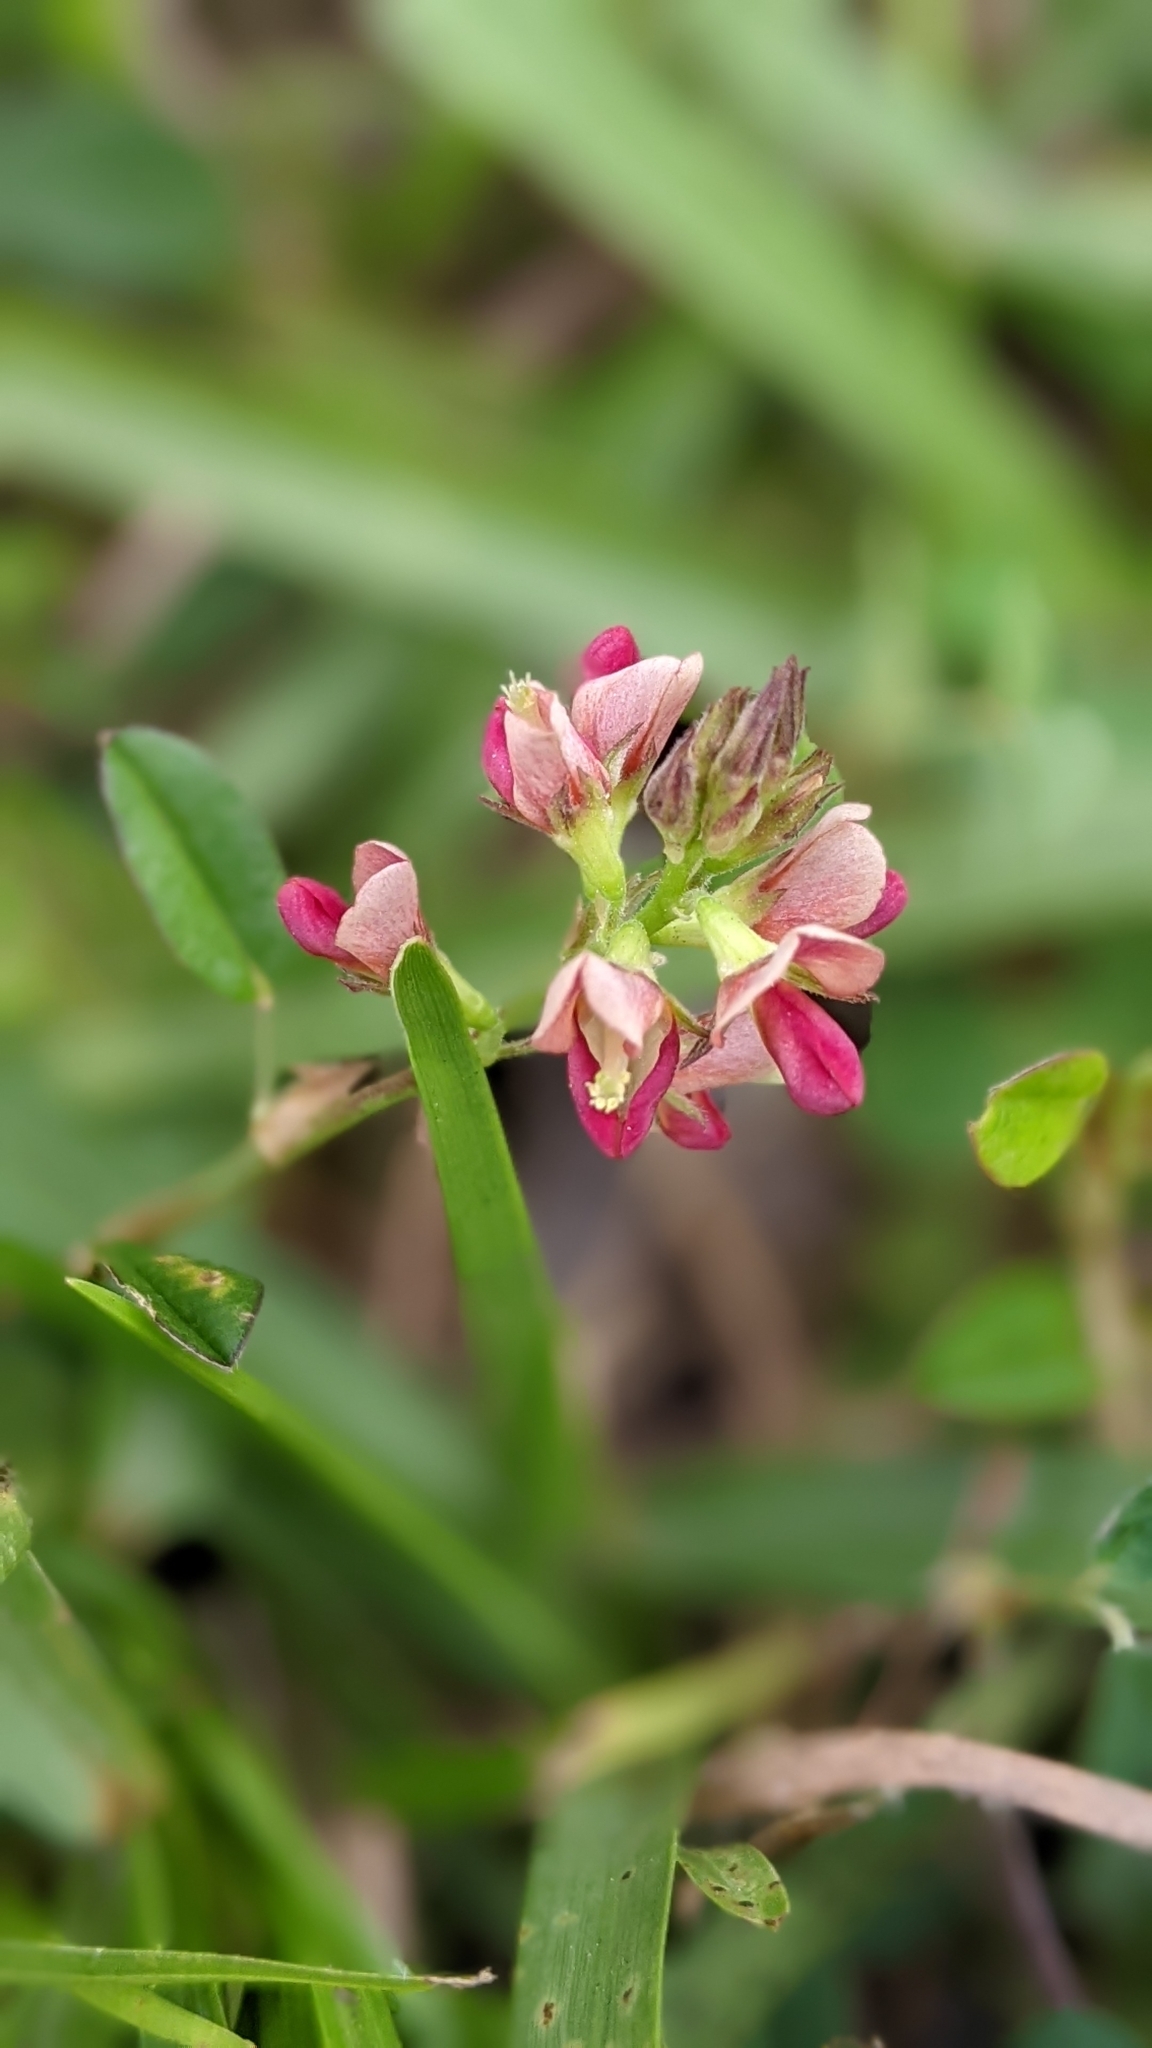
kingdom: Plantae
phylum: Tracheophyta
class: Magnoliopsida
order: Fabales
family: Fabaceae
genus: Alysicarpus
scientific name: Alysicarpus vaginalis
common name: White moneywort
